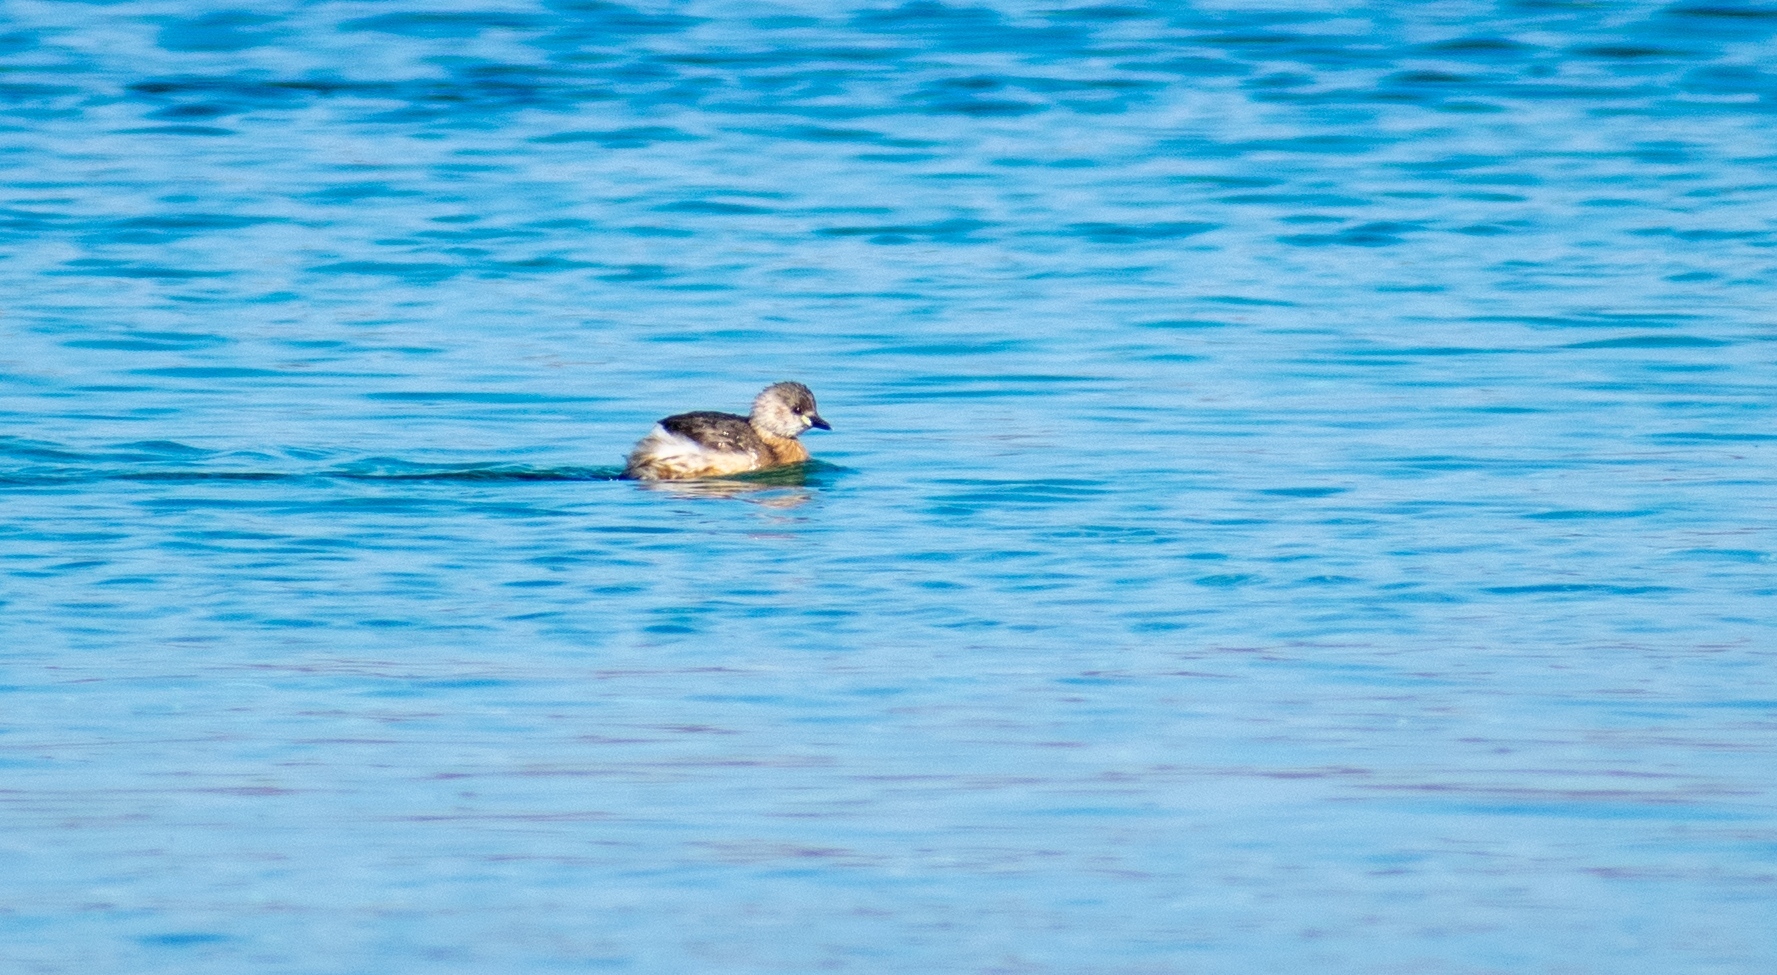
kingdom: Animalia
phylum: Chordata
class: Aves
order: Podicipediformes
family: Podicipedidae
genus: Tachybaptus
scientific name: Tachybaptus ruficollis
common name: Little grebe
